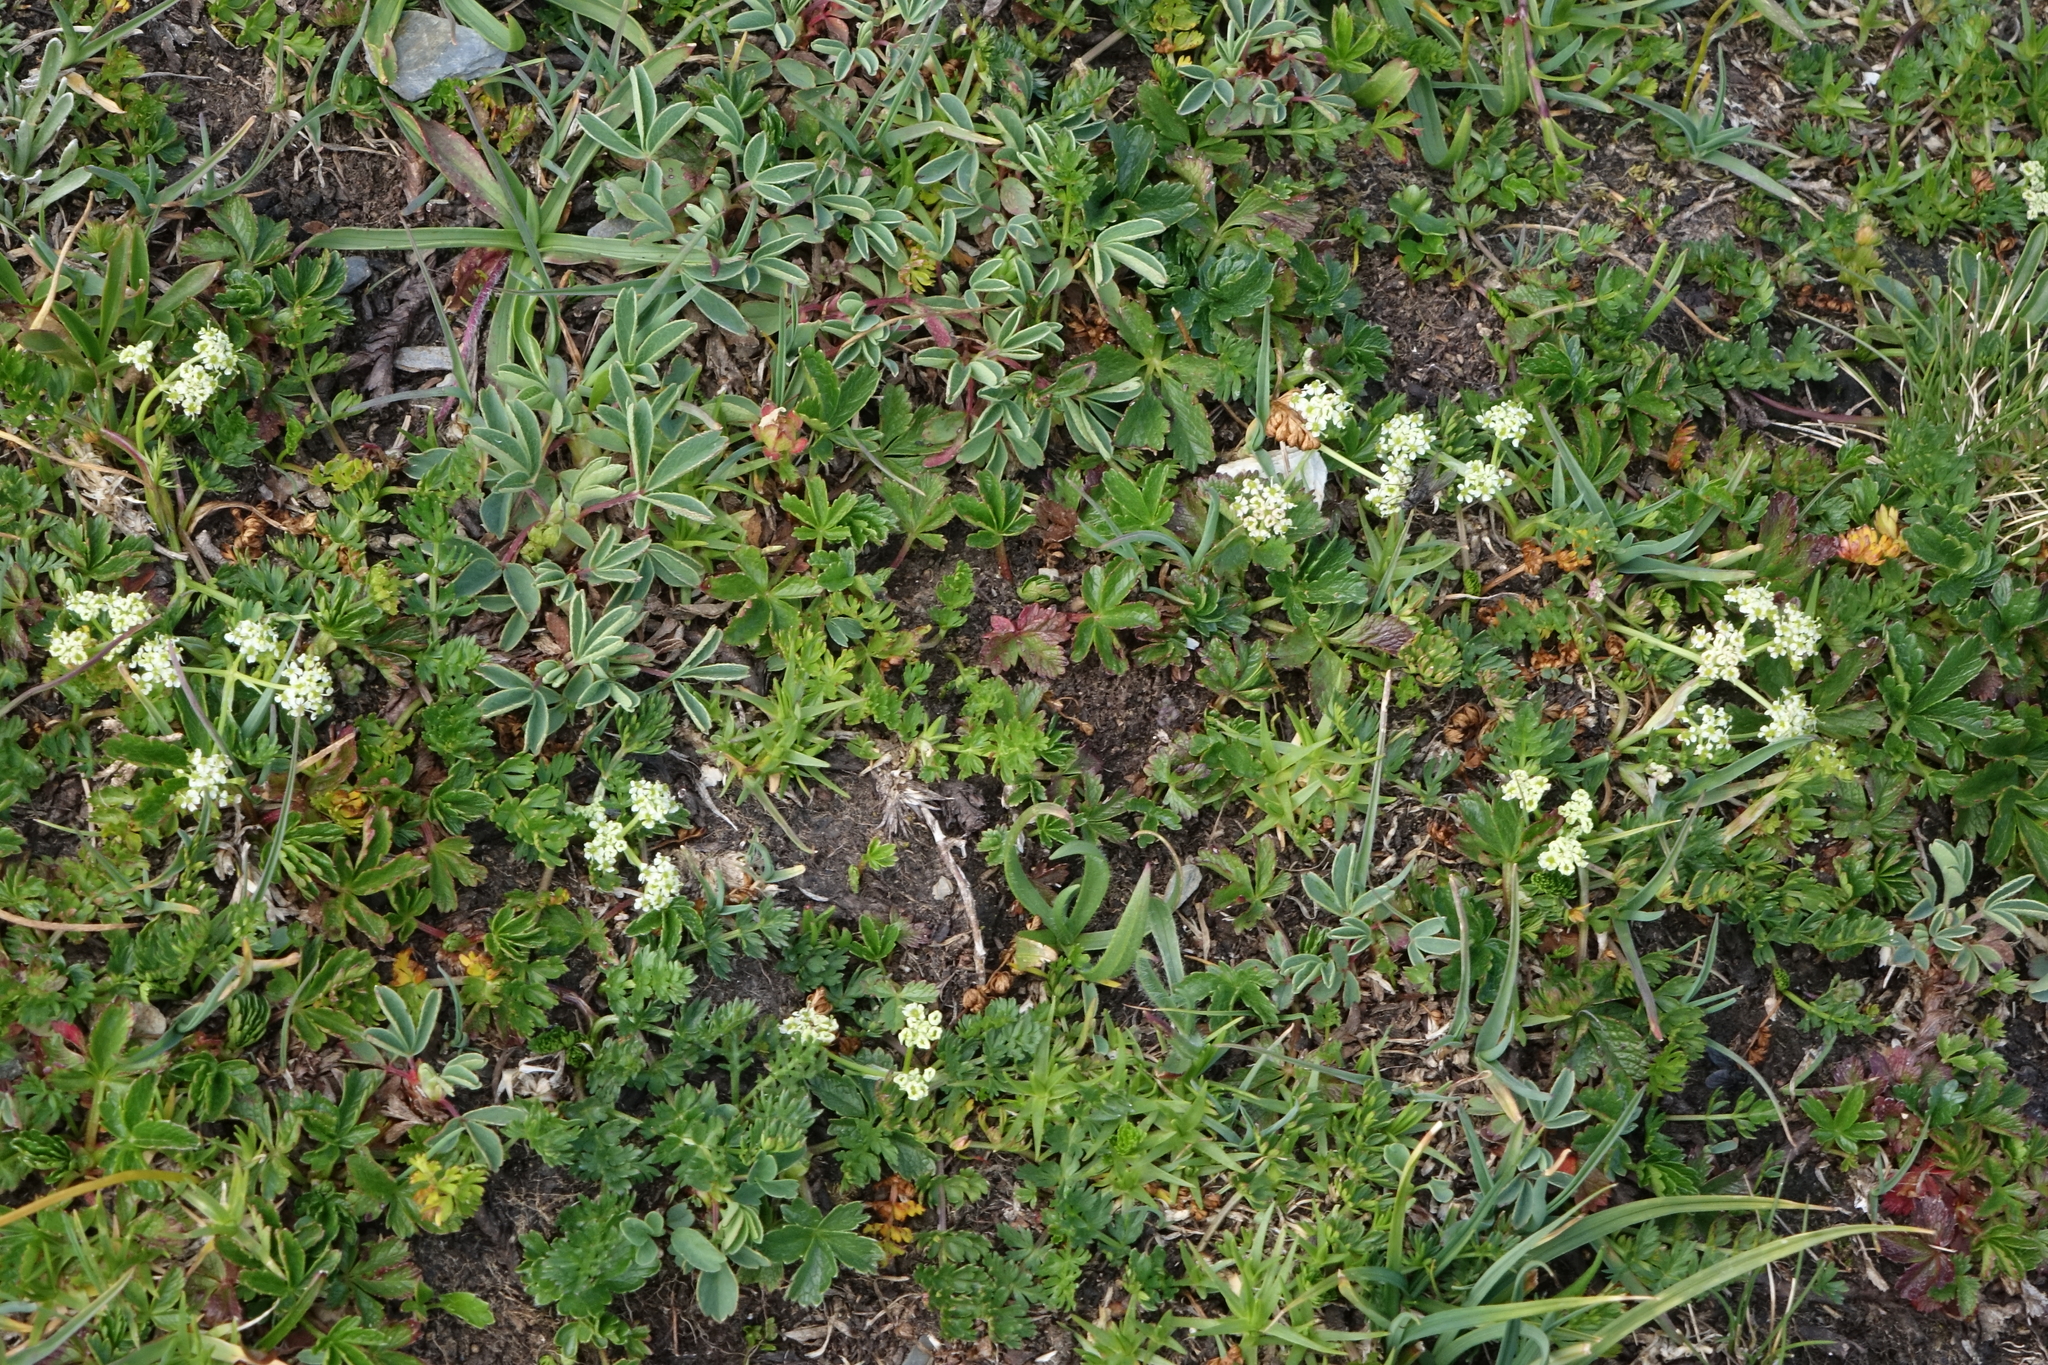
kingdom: Plantae
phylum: Tracheophyta
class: Magnoliopsida
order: Apiales
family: Apiaceae
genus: Chamaesciadium
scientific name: Chamaesciadium acaule
